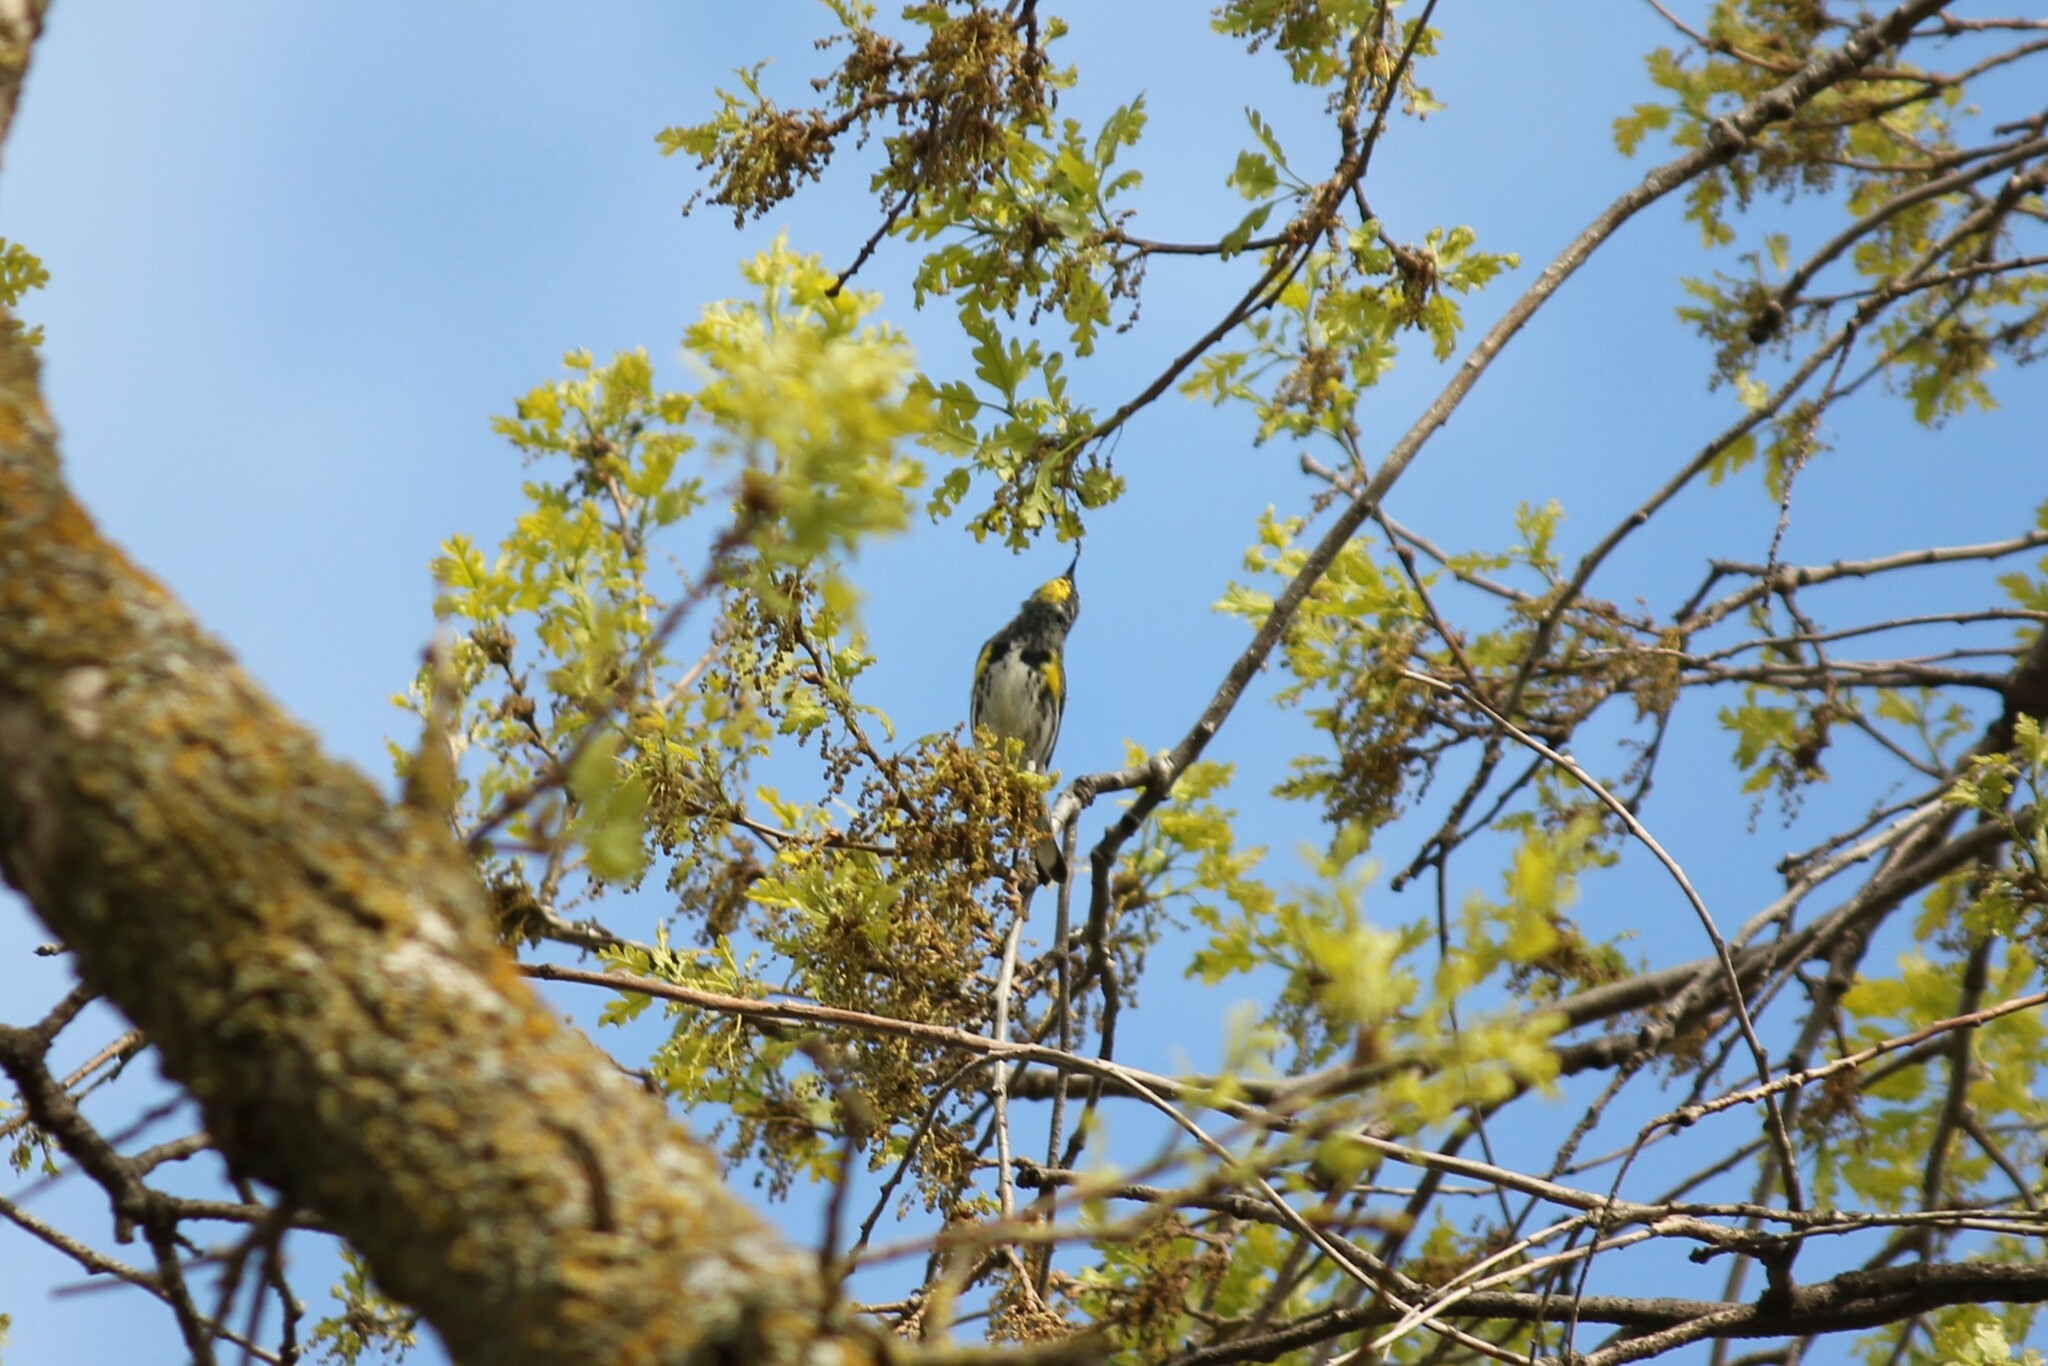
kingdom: Animalia
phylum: Chordata
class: Aves
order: Passeriformes
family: Parulidae
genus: Setophaga
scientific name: Setophaga coronata
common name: Myrtle warbler
